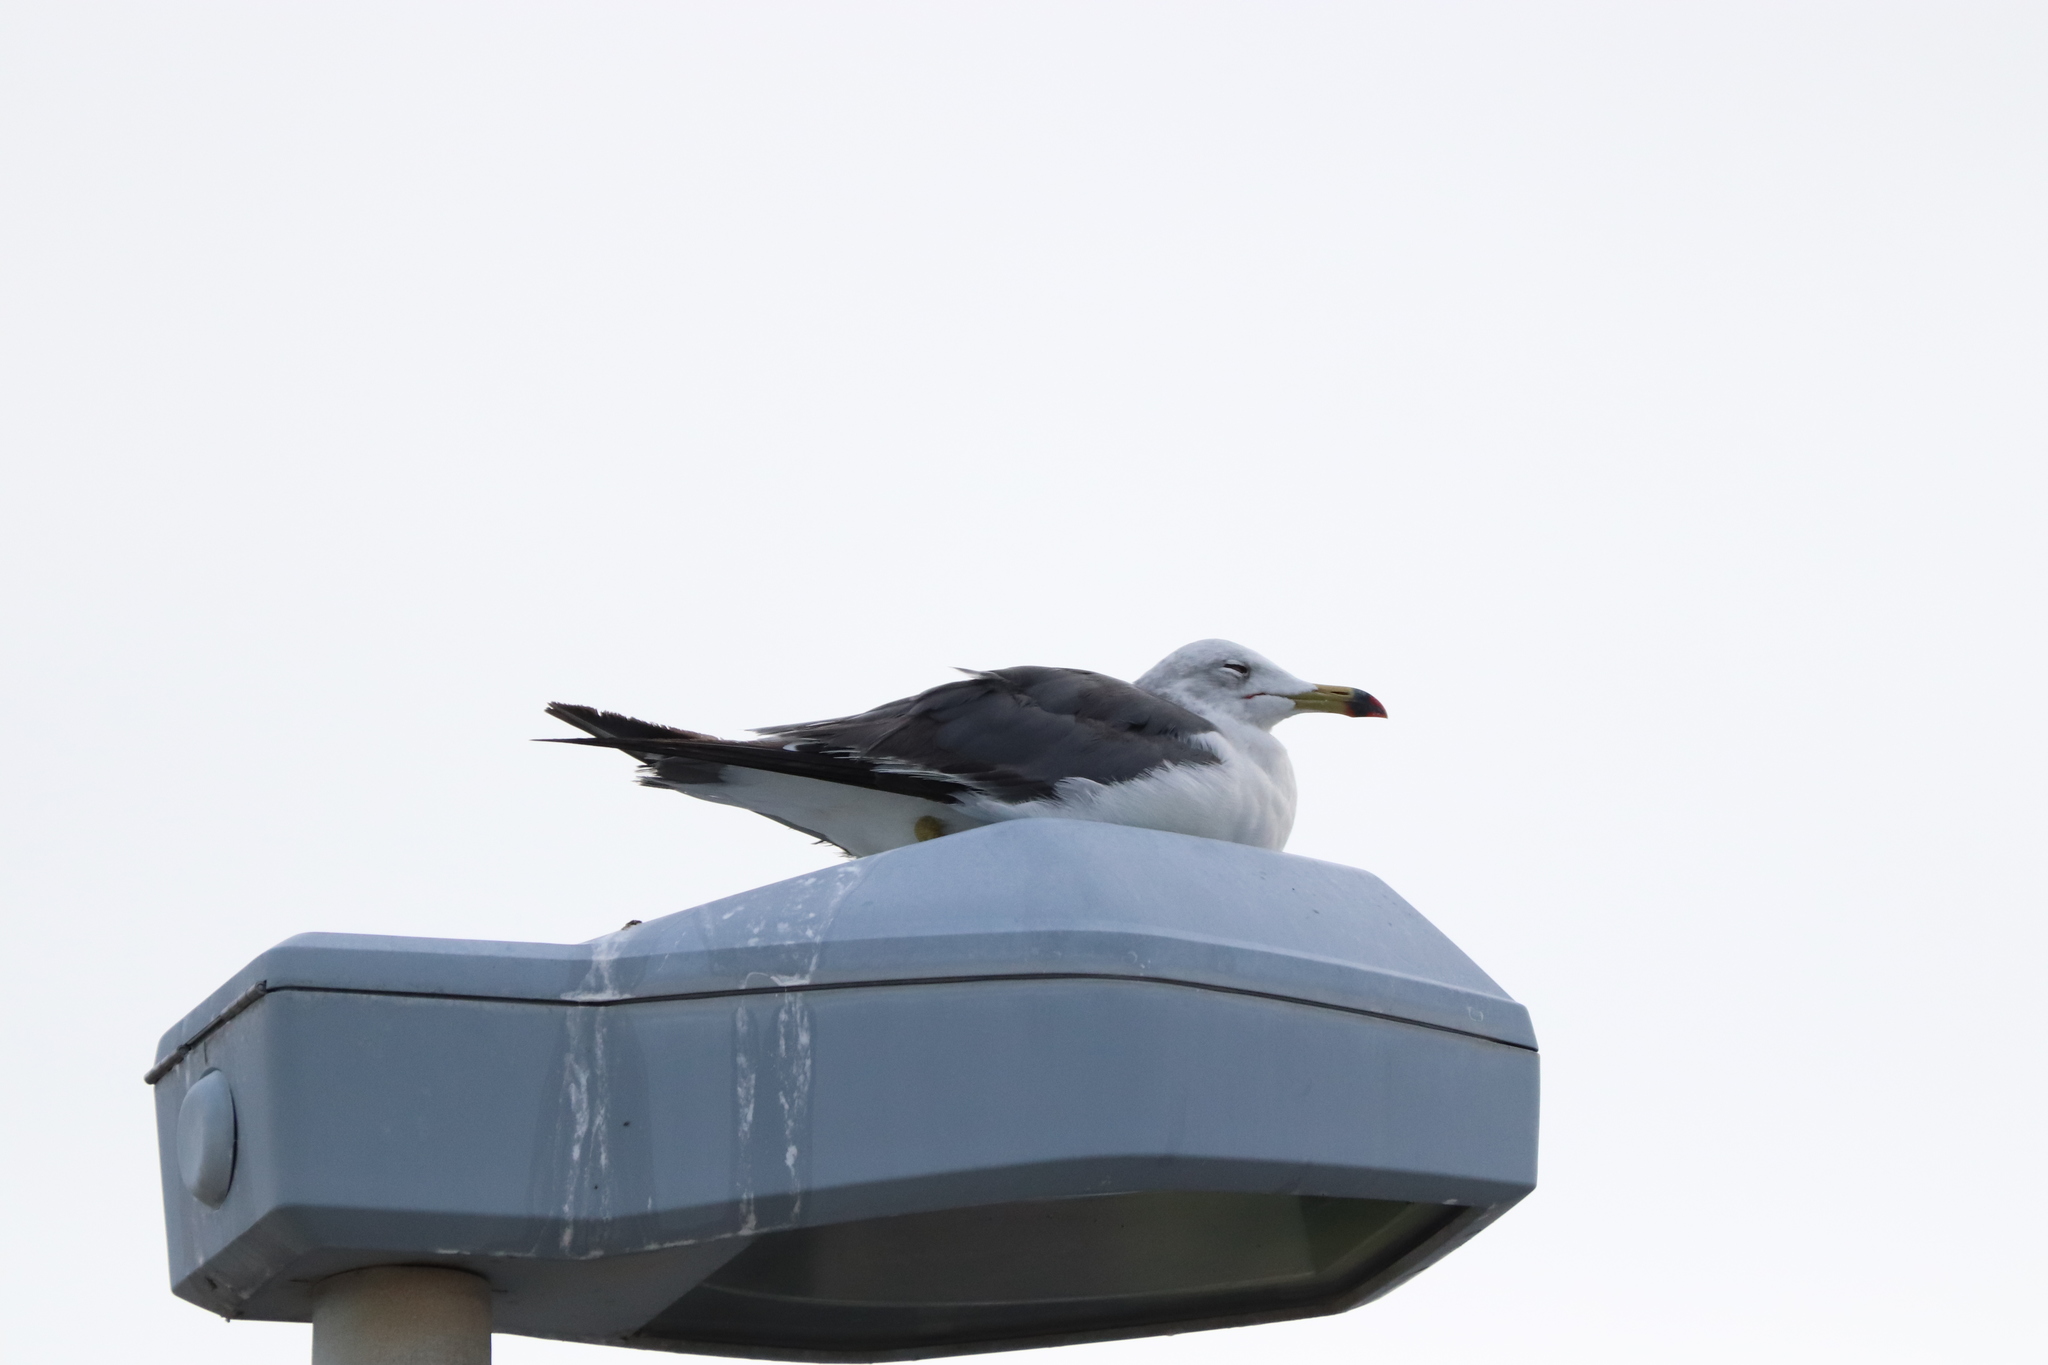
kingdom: Animalia
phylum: Chordata
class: Aves
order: Charadriiformes
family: Laridae
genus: Larus
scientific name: Larus crassirostris
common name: Black-tailed gull
